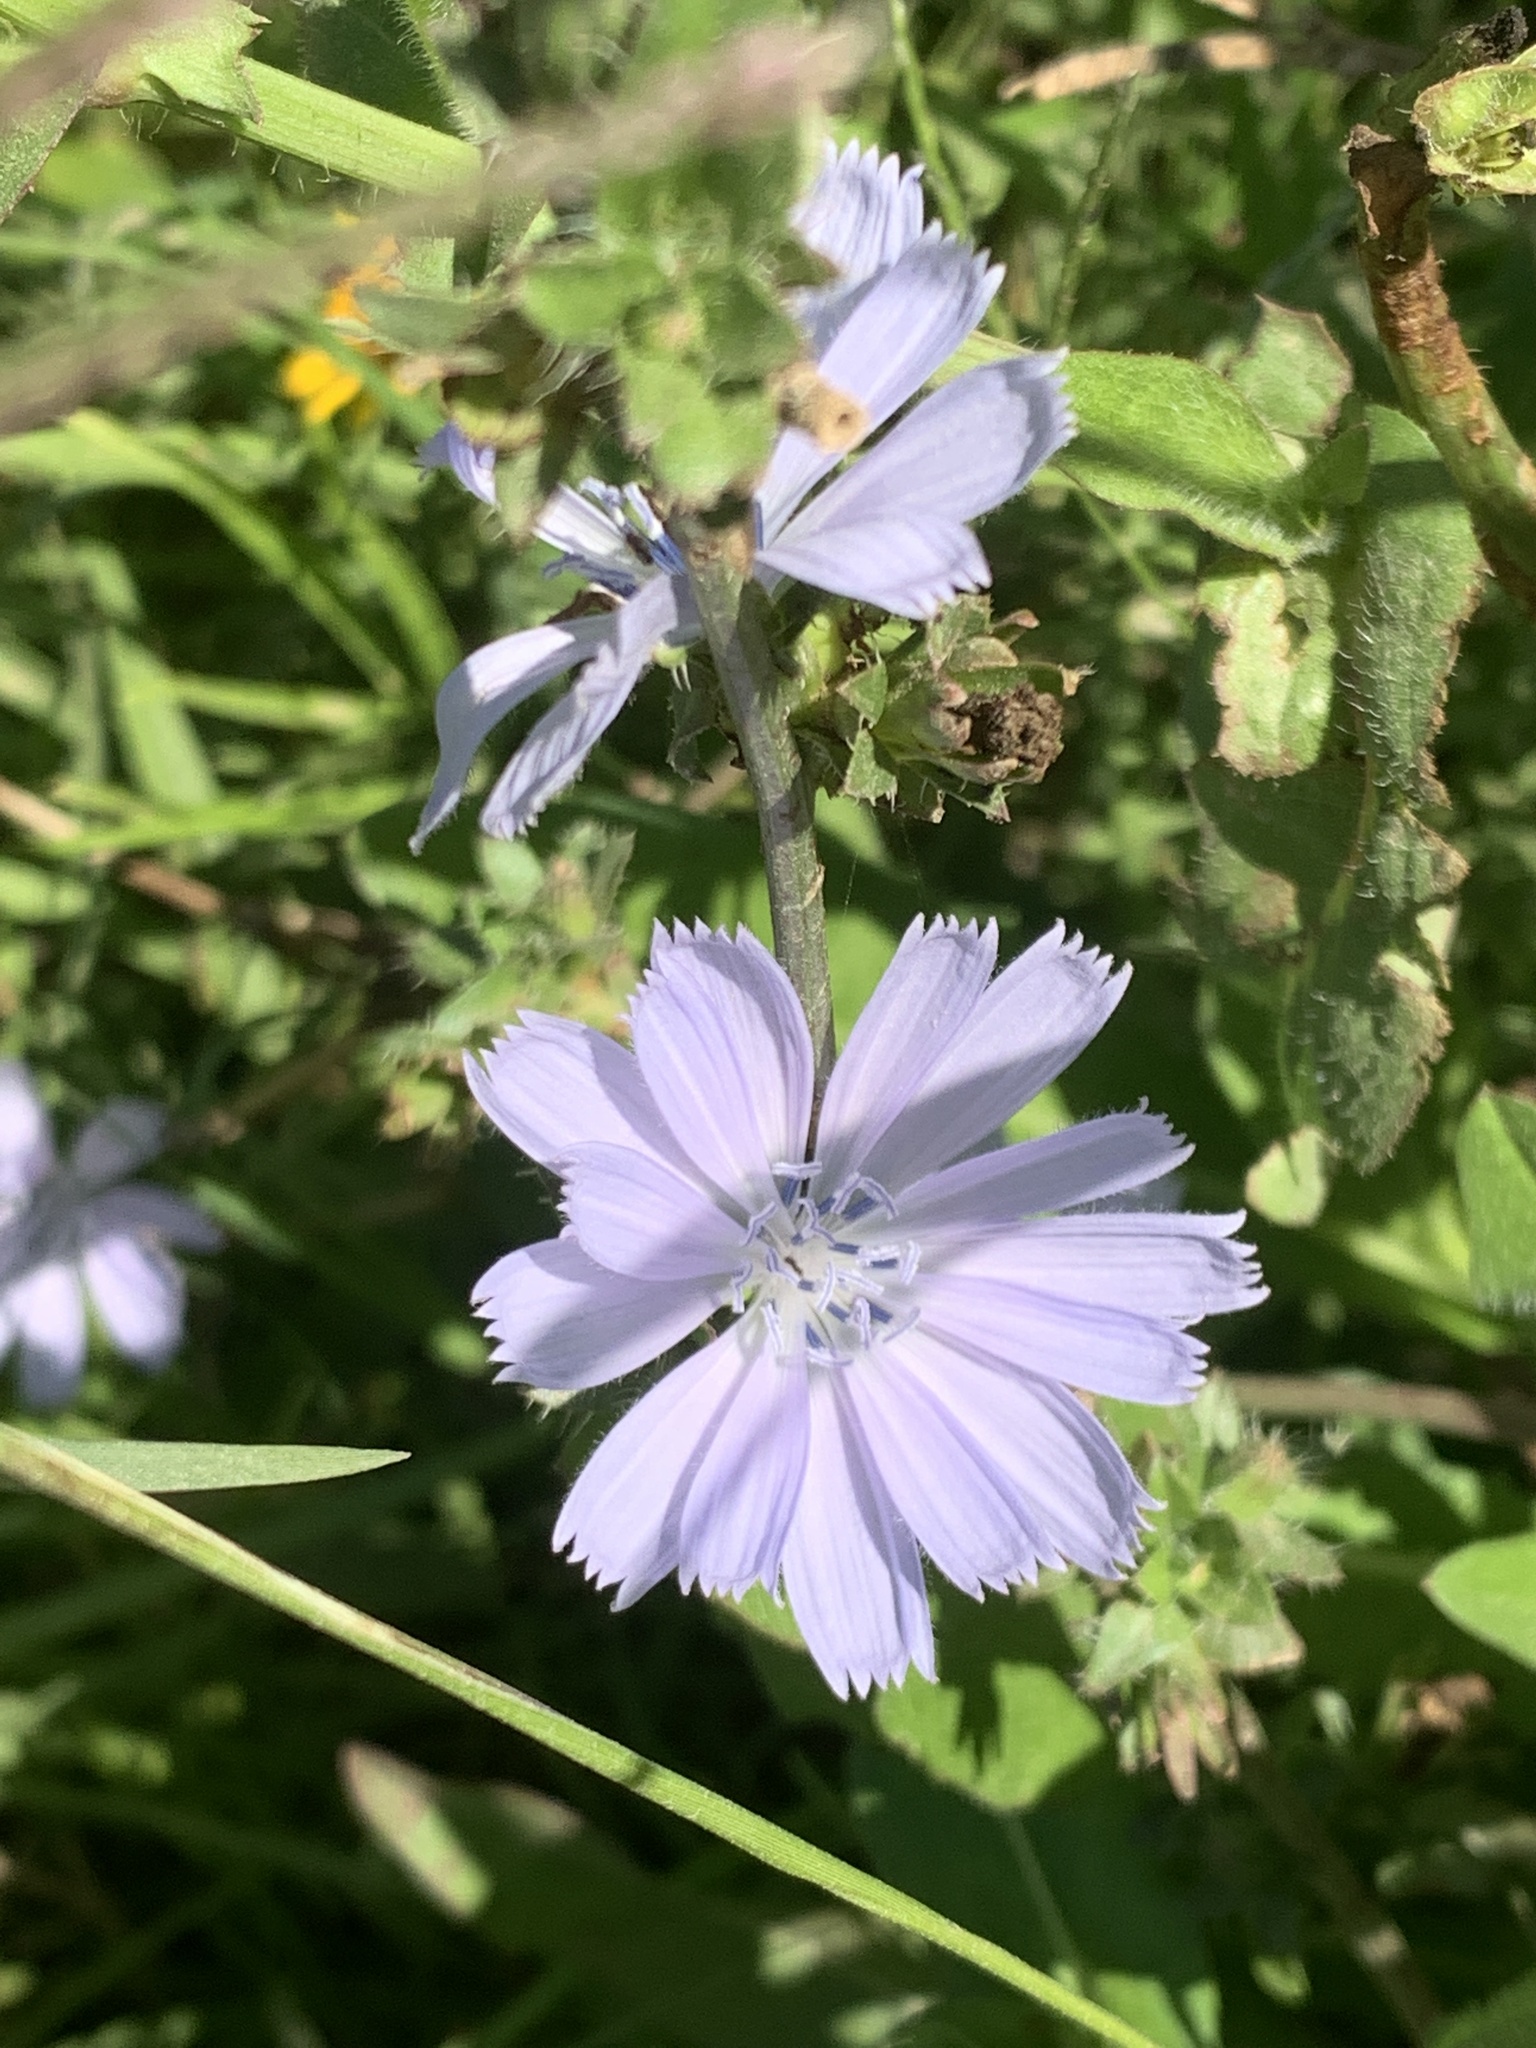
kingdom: Plantae
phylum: Tracheophyta
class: Magnoliopsida
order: Asterales
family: Asteraceae
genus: Cichorium
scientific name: Cichorium intybus
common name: Chicory
